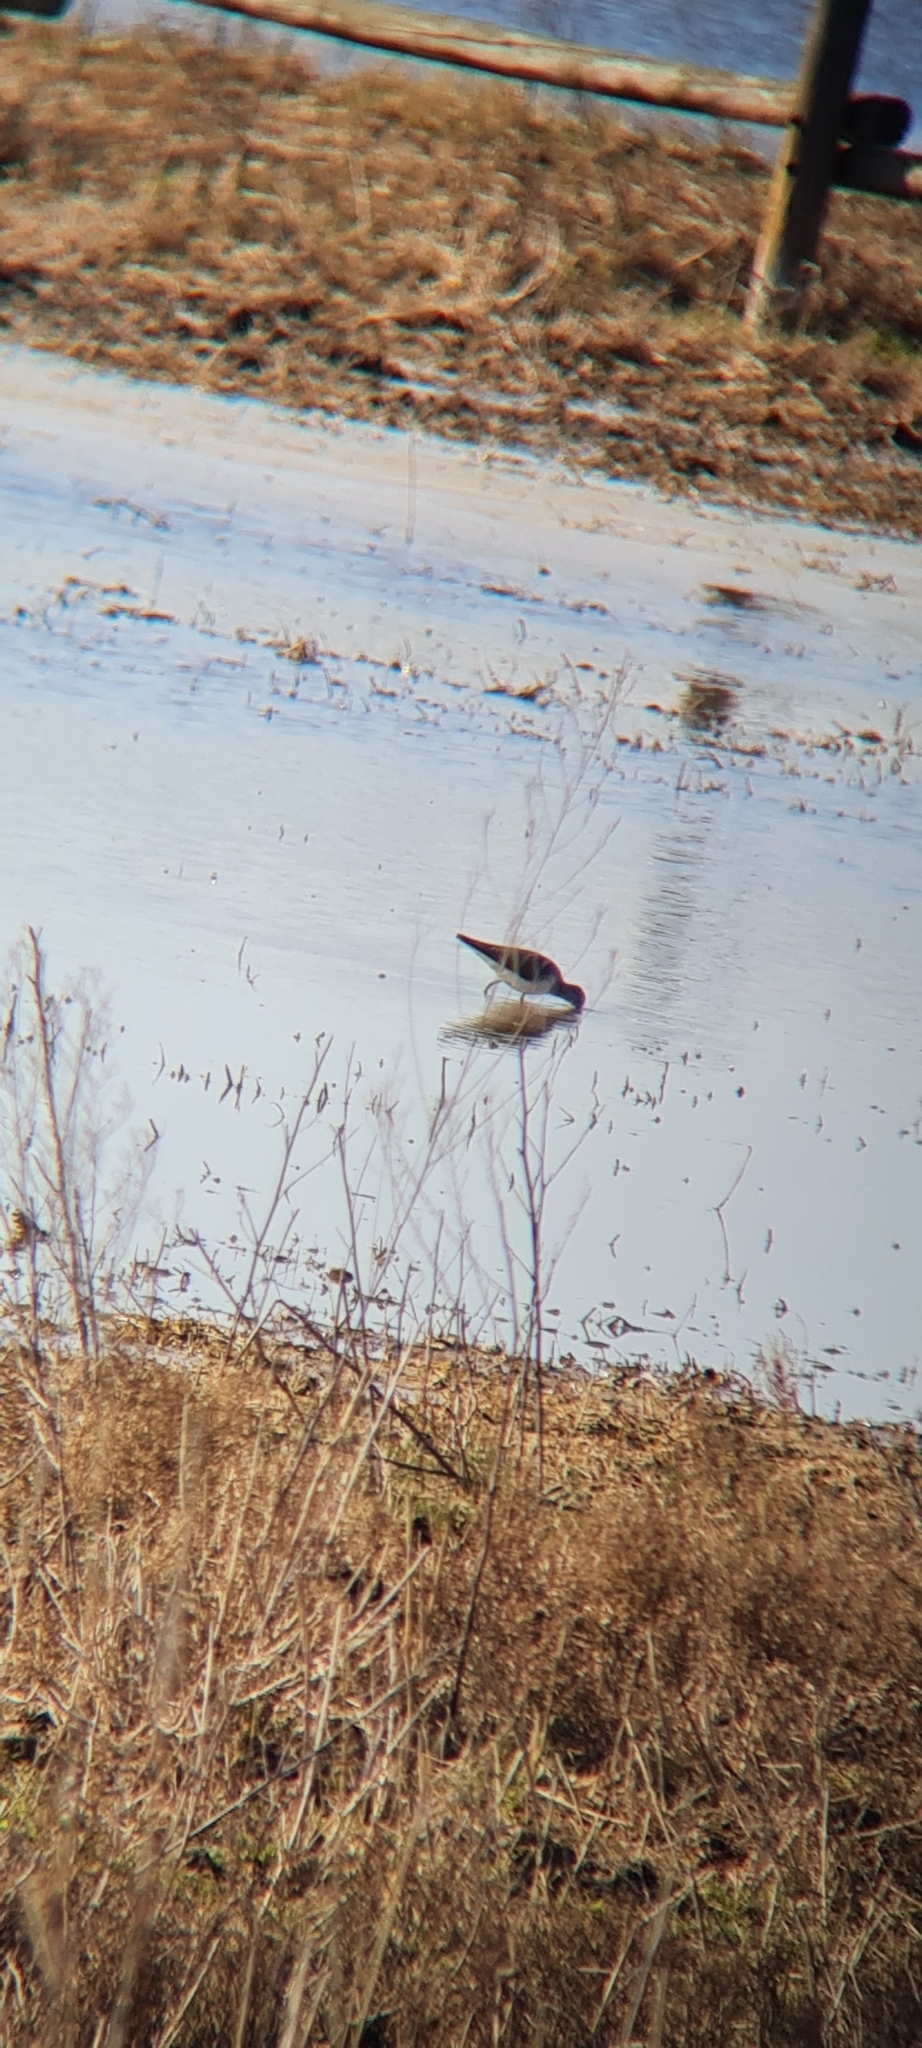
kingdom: Animalia
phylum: Chordata
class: Aves
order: Charadriiformes
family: Scolopacidae
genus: Actitis
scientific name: Actitis hypoleucos
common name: Common sandpiper
